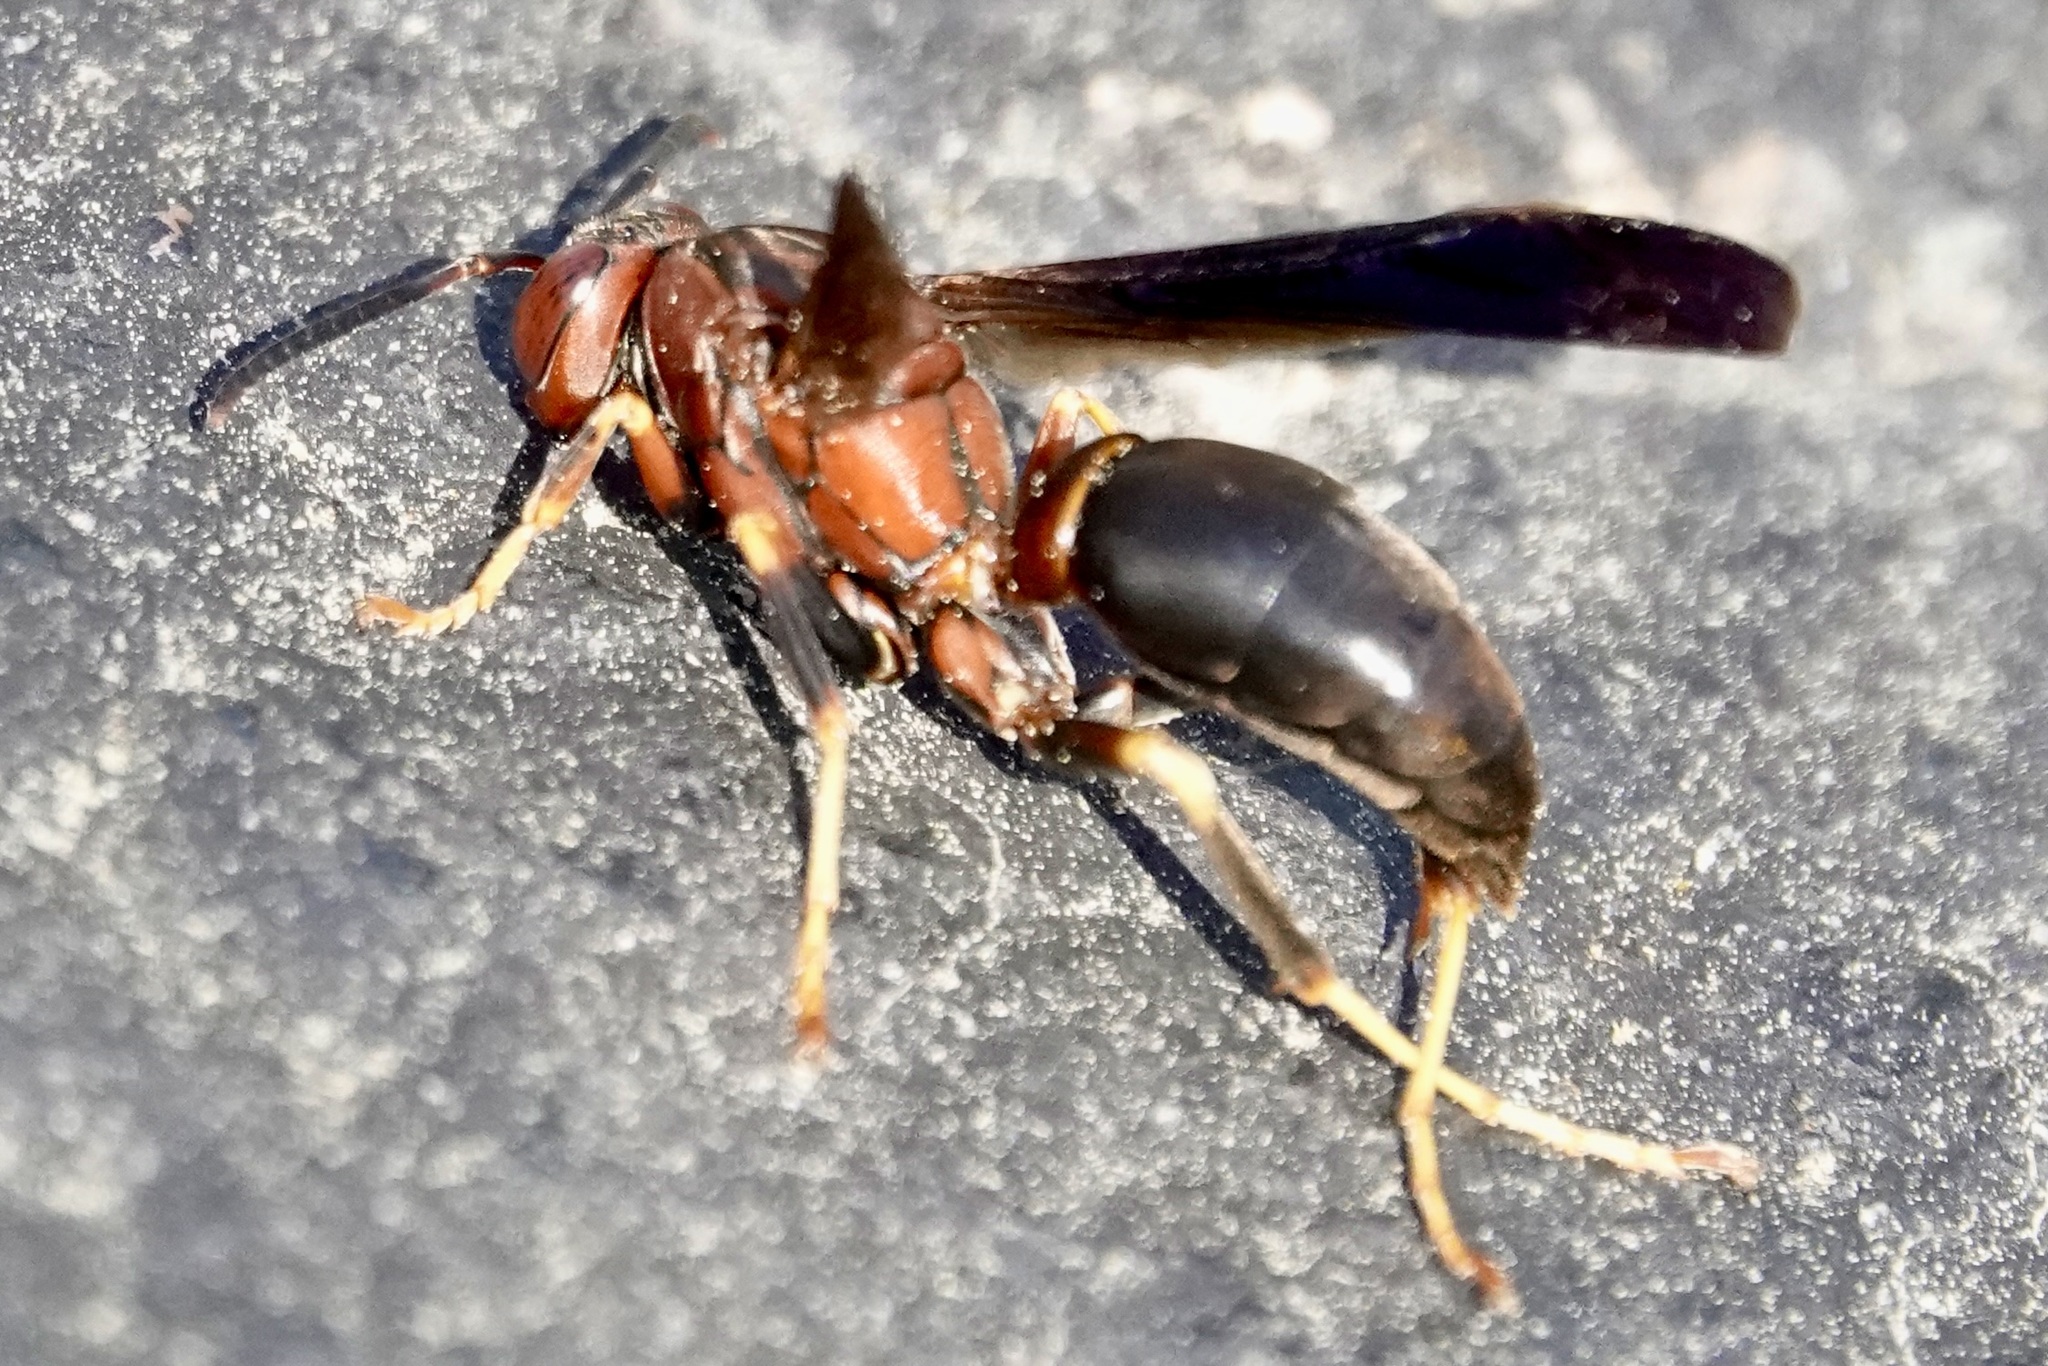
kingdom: Animalia
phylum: Arthropoda
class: Insecta
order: Hymenoptera
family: Eumenidae
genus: Polistes
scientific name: Polistes metricus
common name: Metric paper wasp
